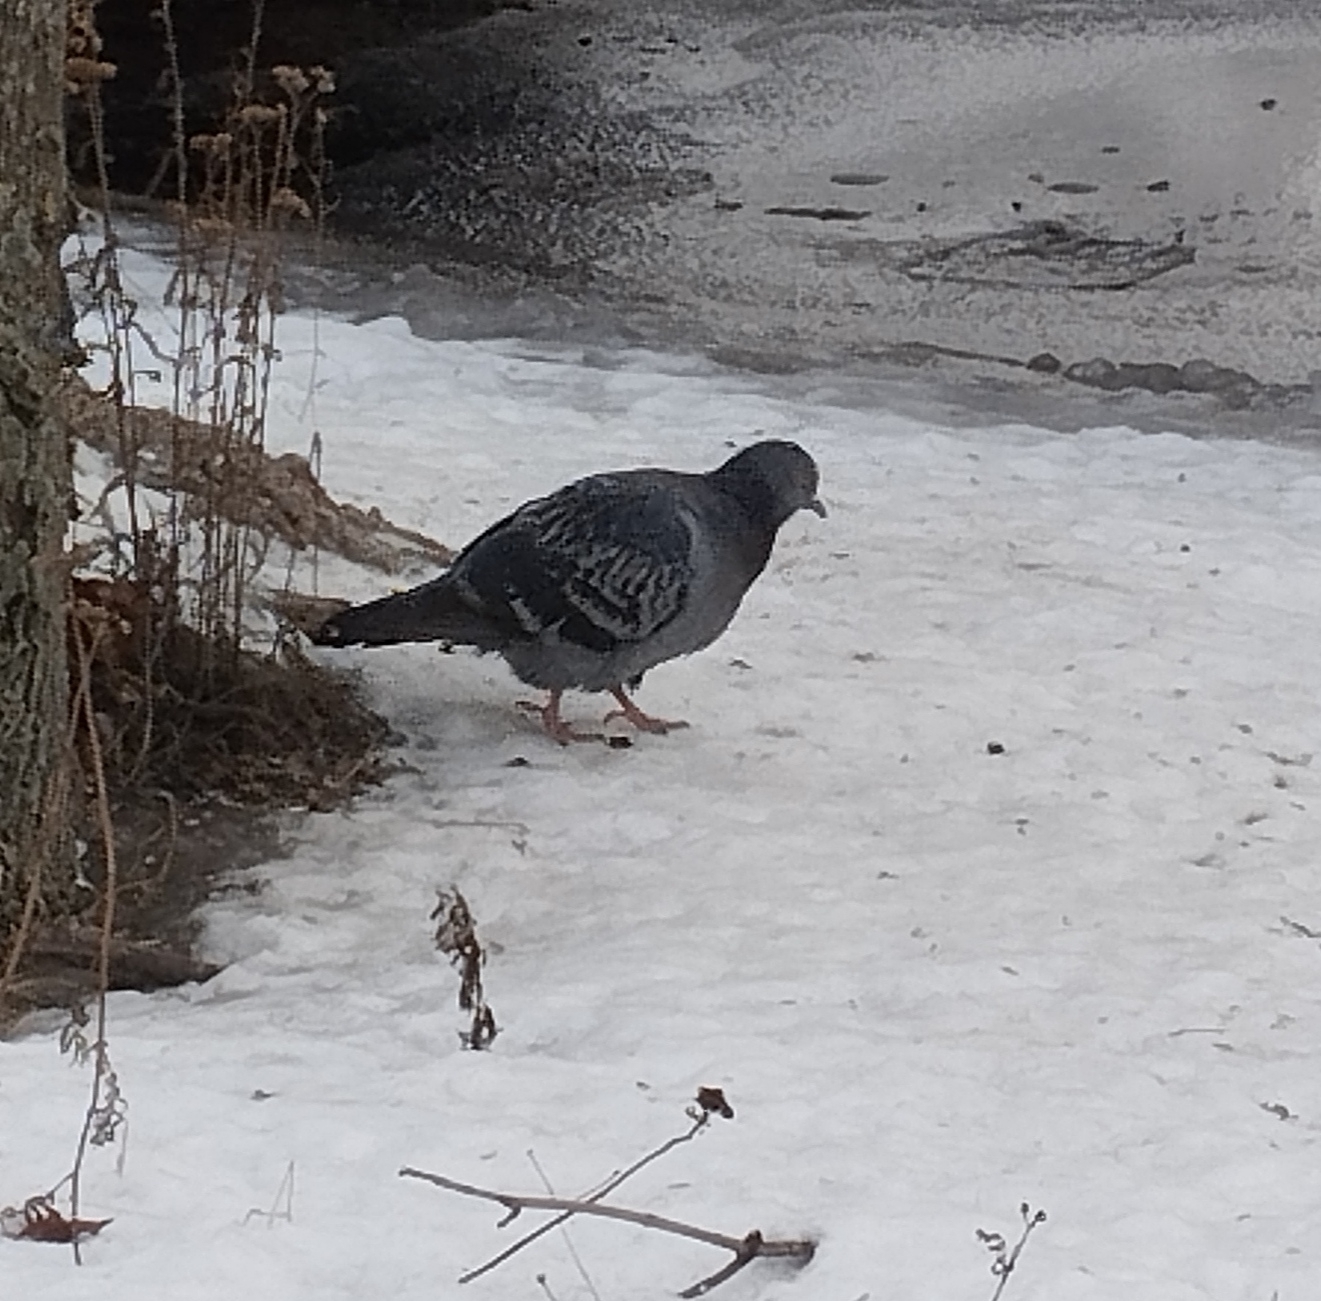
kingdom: Animalia
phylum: Chordata
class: Aves
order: Columbiformes
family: Columbidae
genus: Columba
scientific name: Columba livia
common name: Rock pigeon
